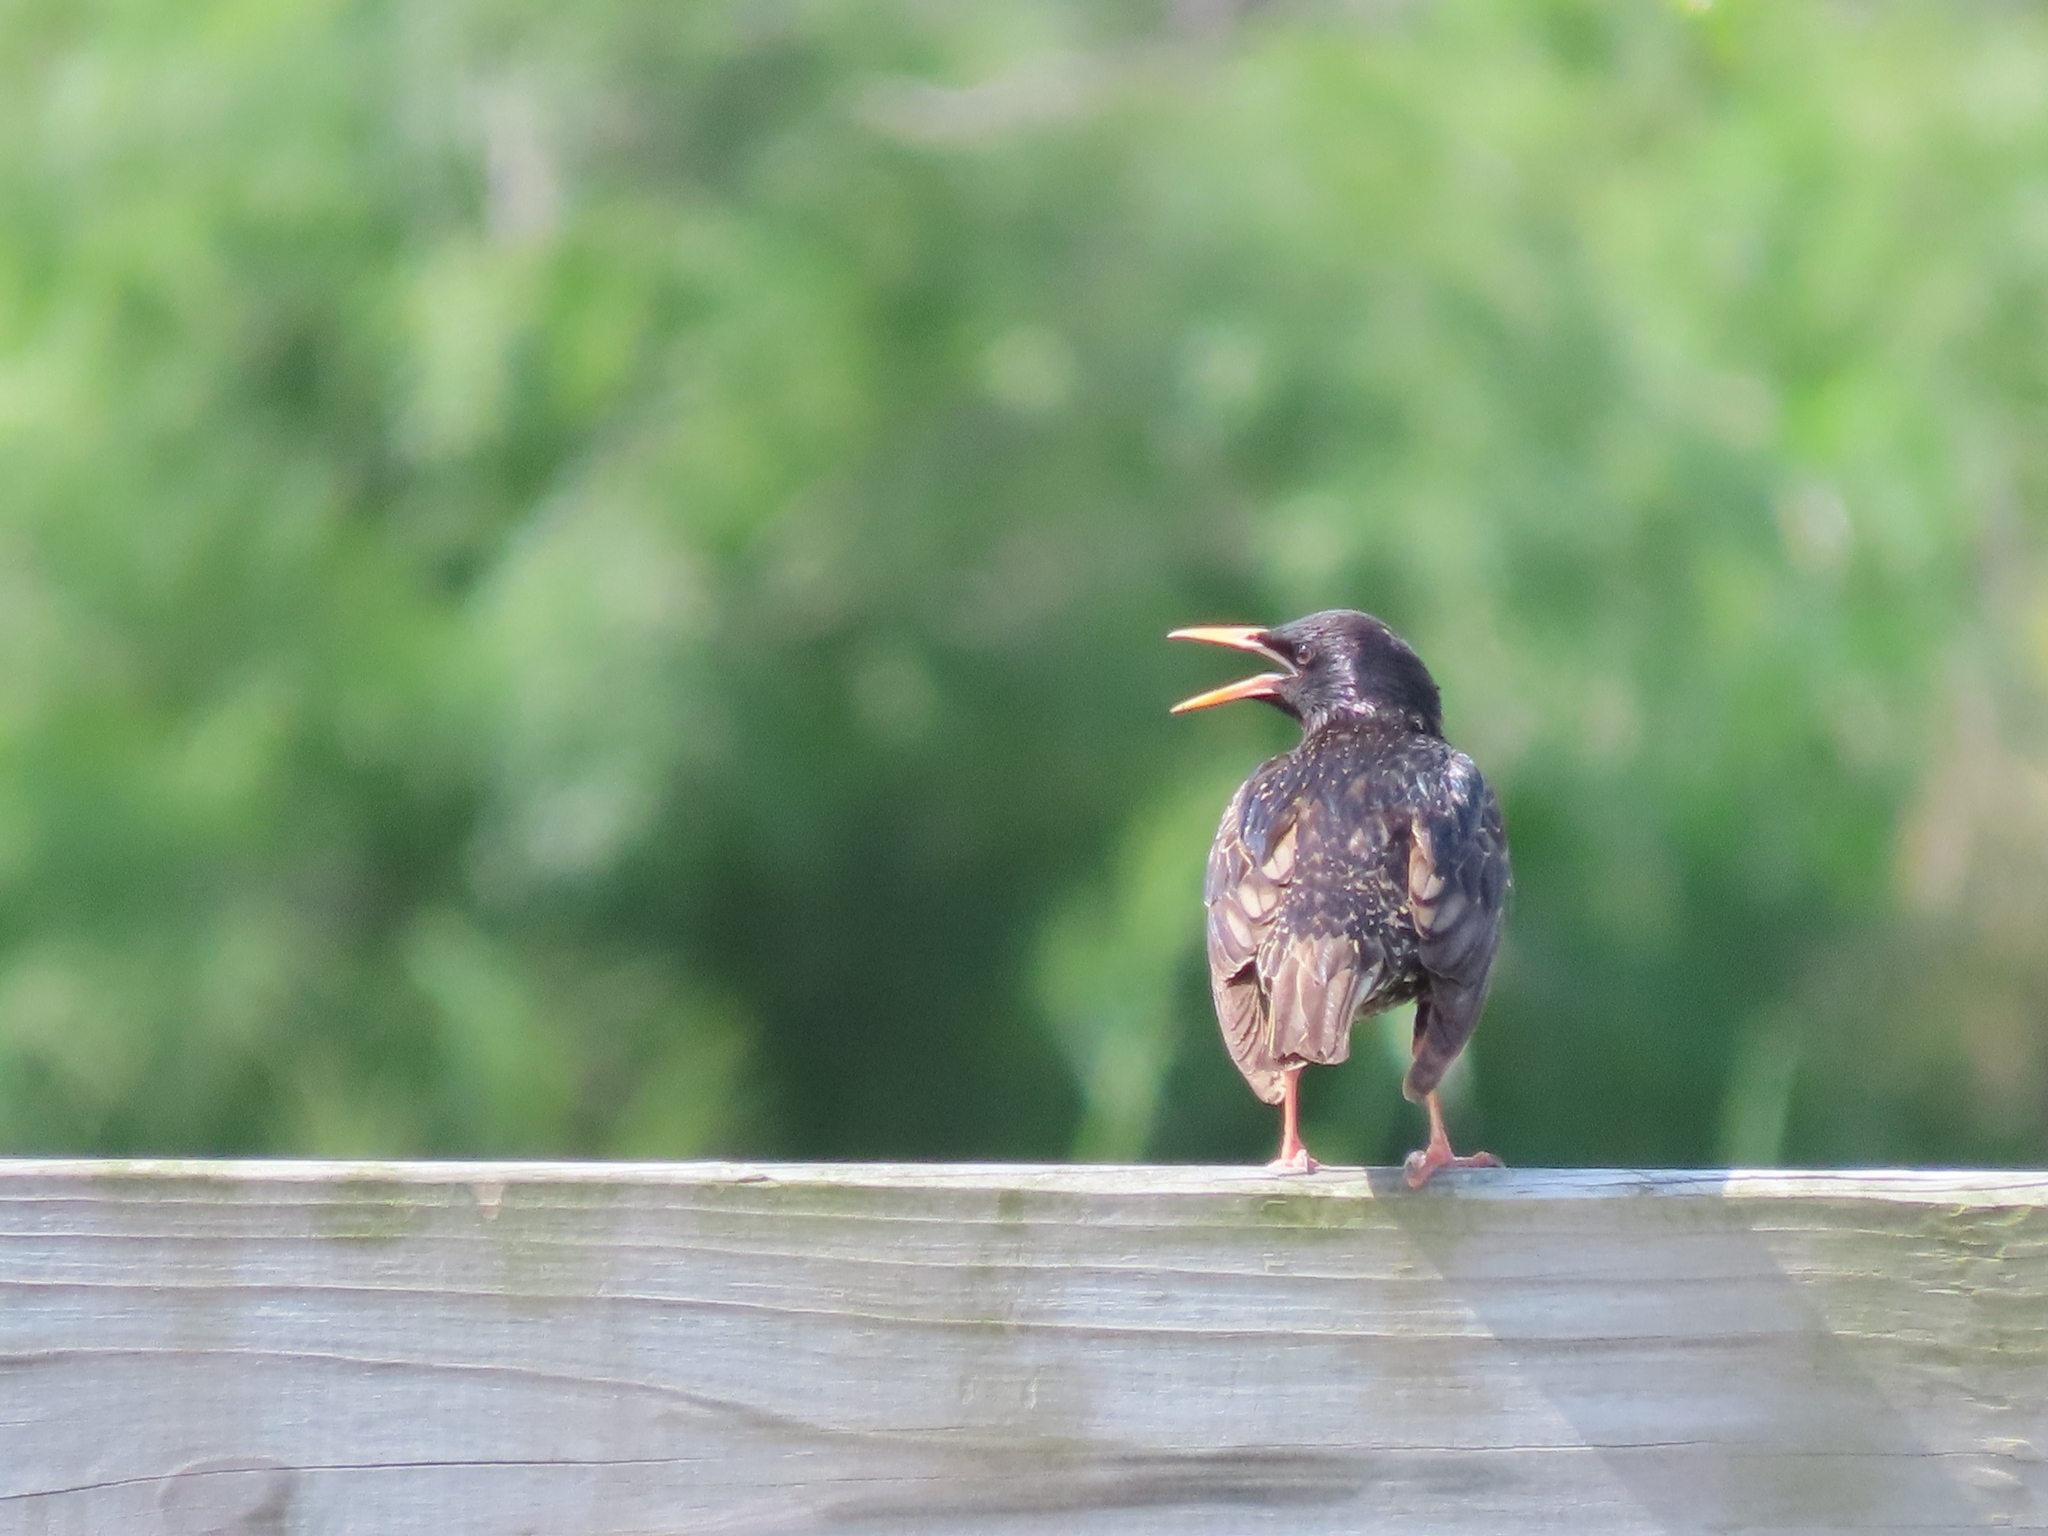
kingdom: Animalia
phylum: Chordata
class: Aves
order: Passeriformes
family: Sturnidae
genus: Sturnus
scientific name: Sturnus vulgaris
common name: Common starling
